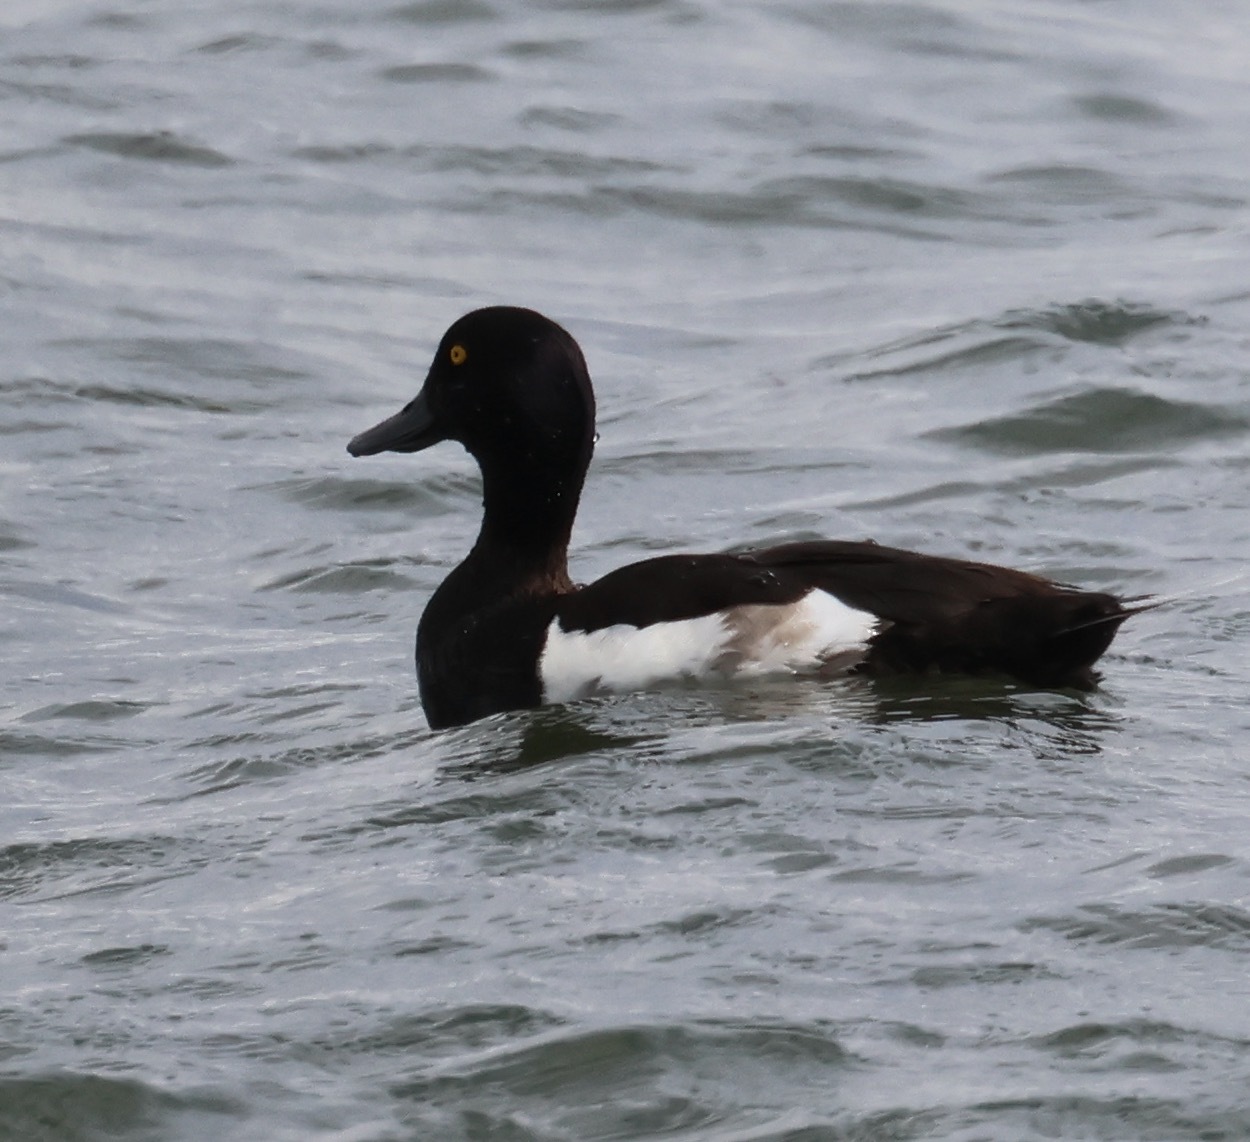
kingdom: Animalia
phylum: Chordata
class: Aves
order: Anseriformes
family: Anatidae
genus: Aythya
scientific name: Aythya fuligula
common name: Tufted duck
